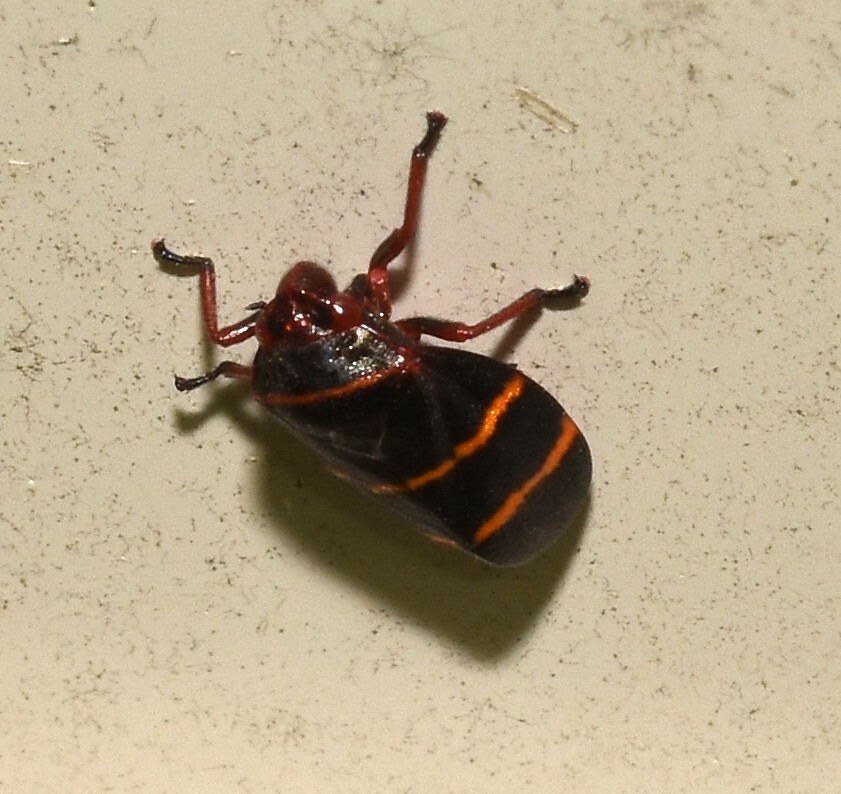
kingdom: Animalia
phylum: Arthropoda
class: Insecta
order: Hemiptera
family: Cercopidae
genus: Prosapia
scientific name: Prosapia bicincta
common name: Twolined spittlebug
